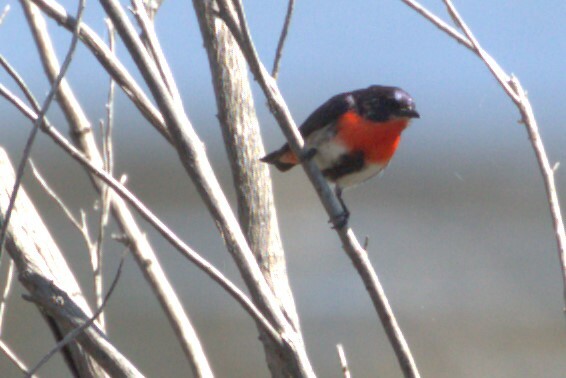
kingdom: Animalia
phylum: Chordata
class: Aves
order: Passeriformes
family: Dicaeidae
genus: Dicaeum
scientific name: Dicaeum hirundinaceum
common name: Mistletoebird
